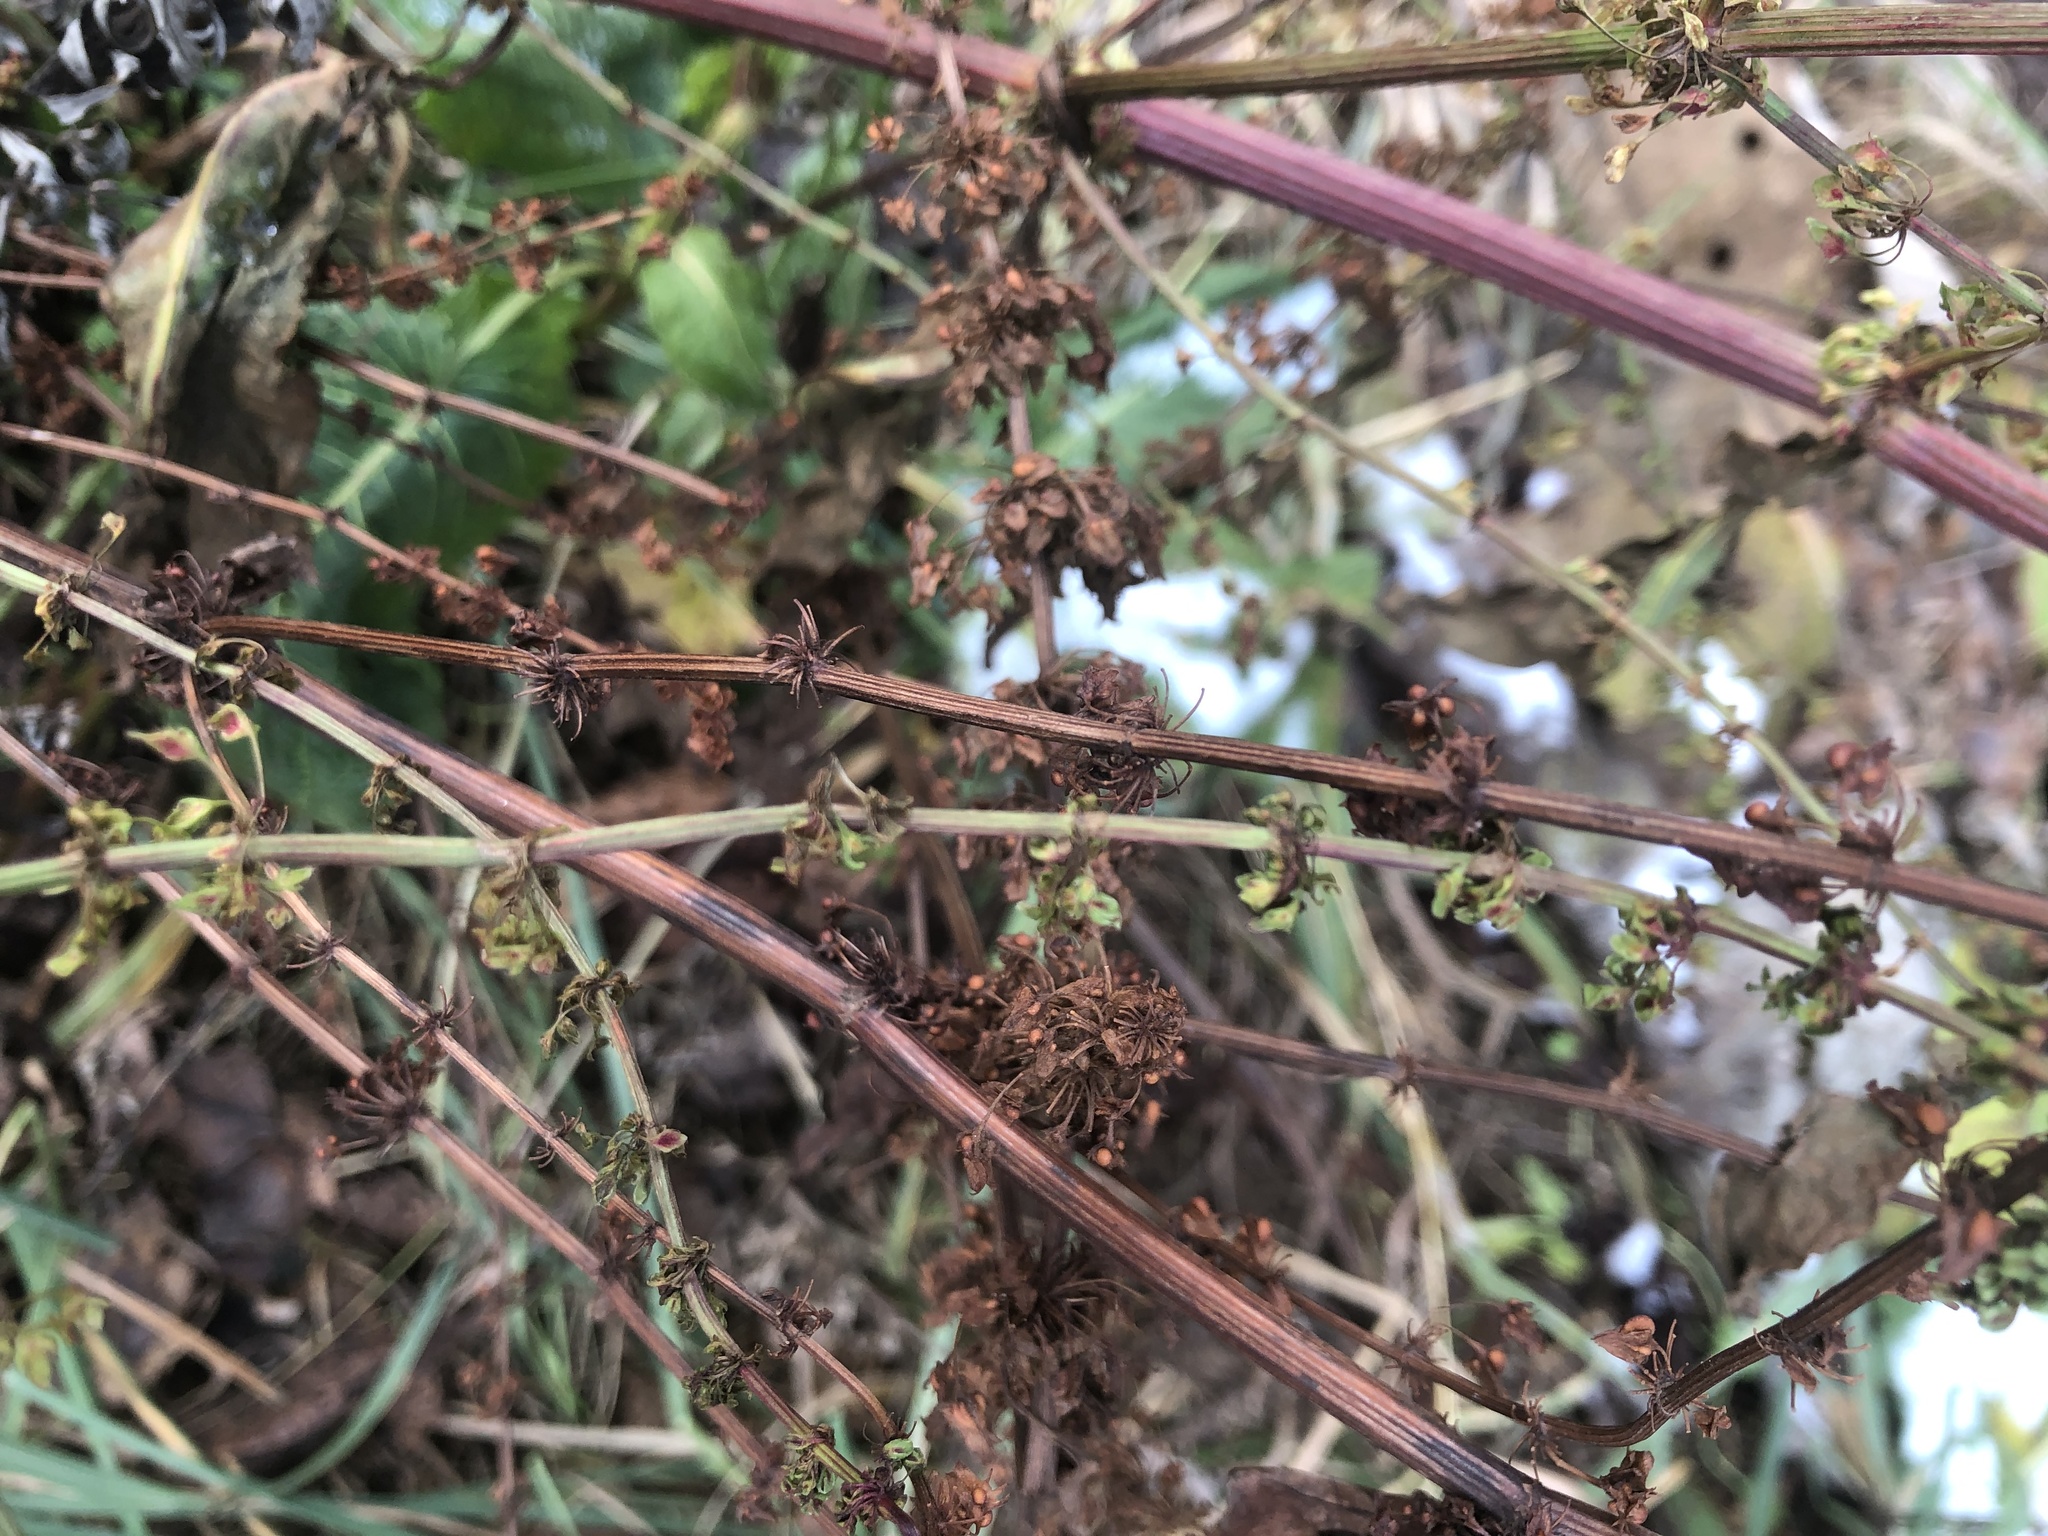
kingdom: Plantae
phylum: Tracheophyta
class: Magnoliopsida
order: Caryophyllales
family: Polygonaceae
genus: Rumex
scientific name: Rumex obtusifolius
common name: Bitter dock
